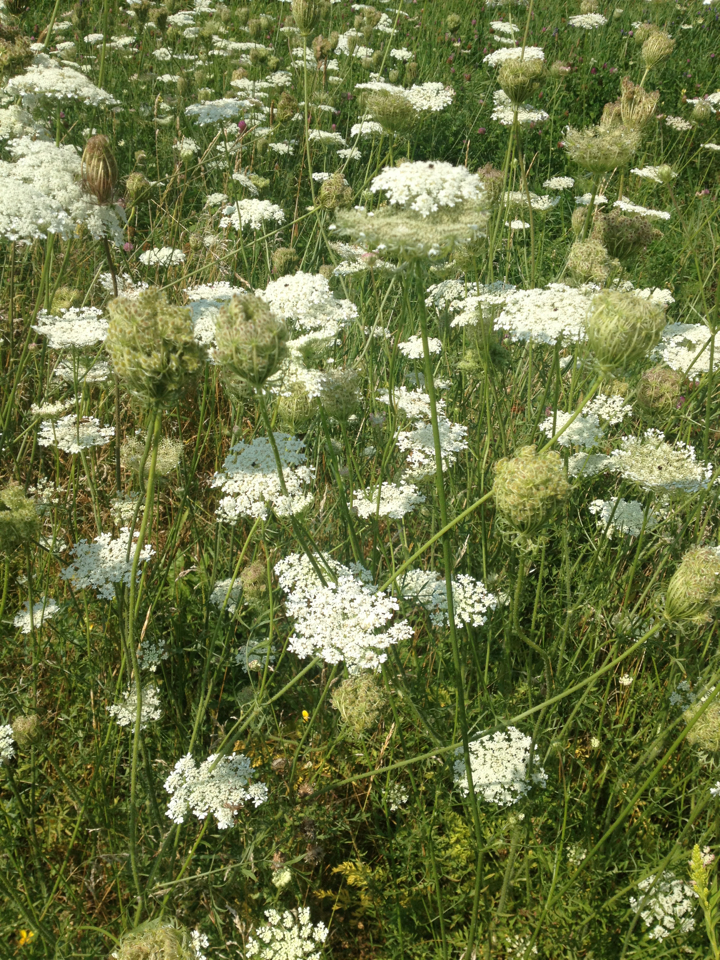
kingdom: Plantae
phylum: Tracheophyta
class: Magnoliopsida
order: Apiales
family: Apiaceae
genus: Daucus
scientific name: Daucus carota
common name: Wild carrot
